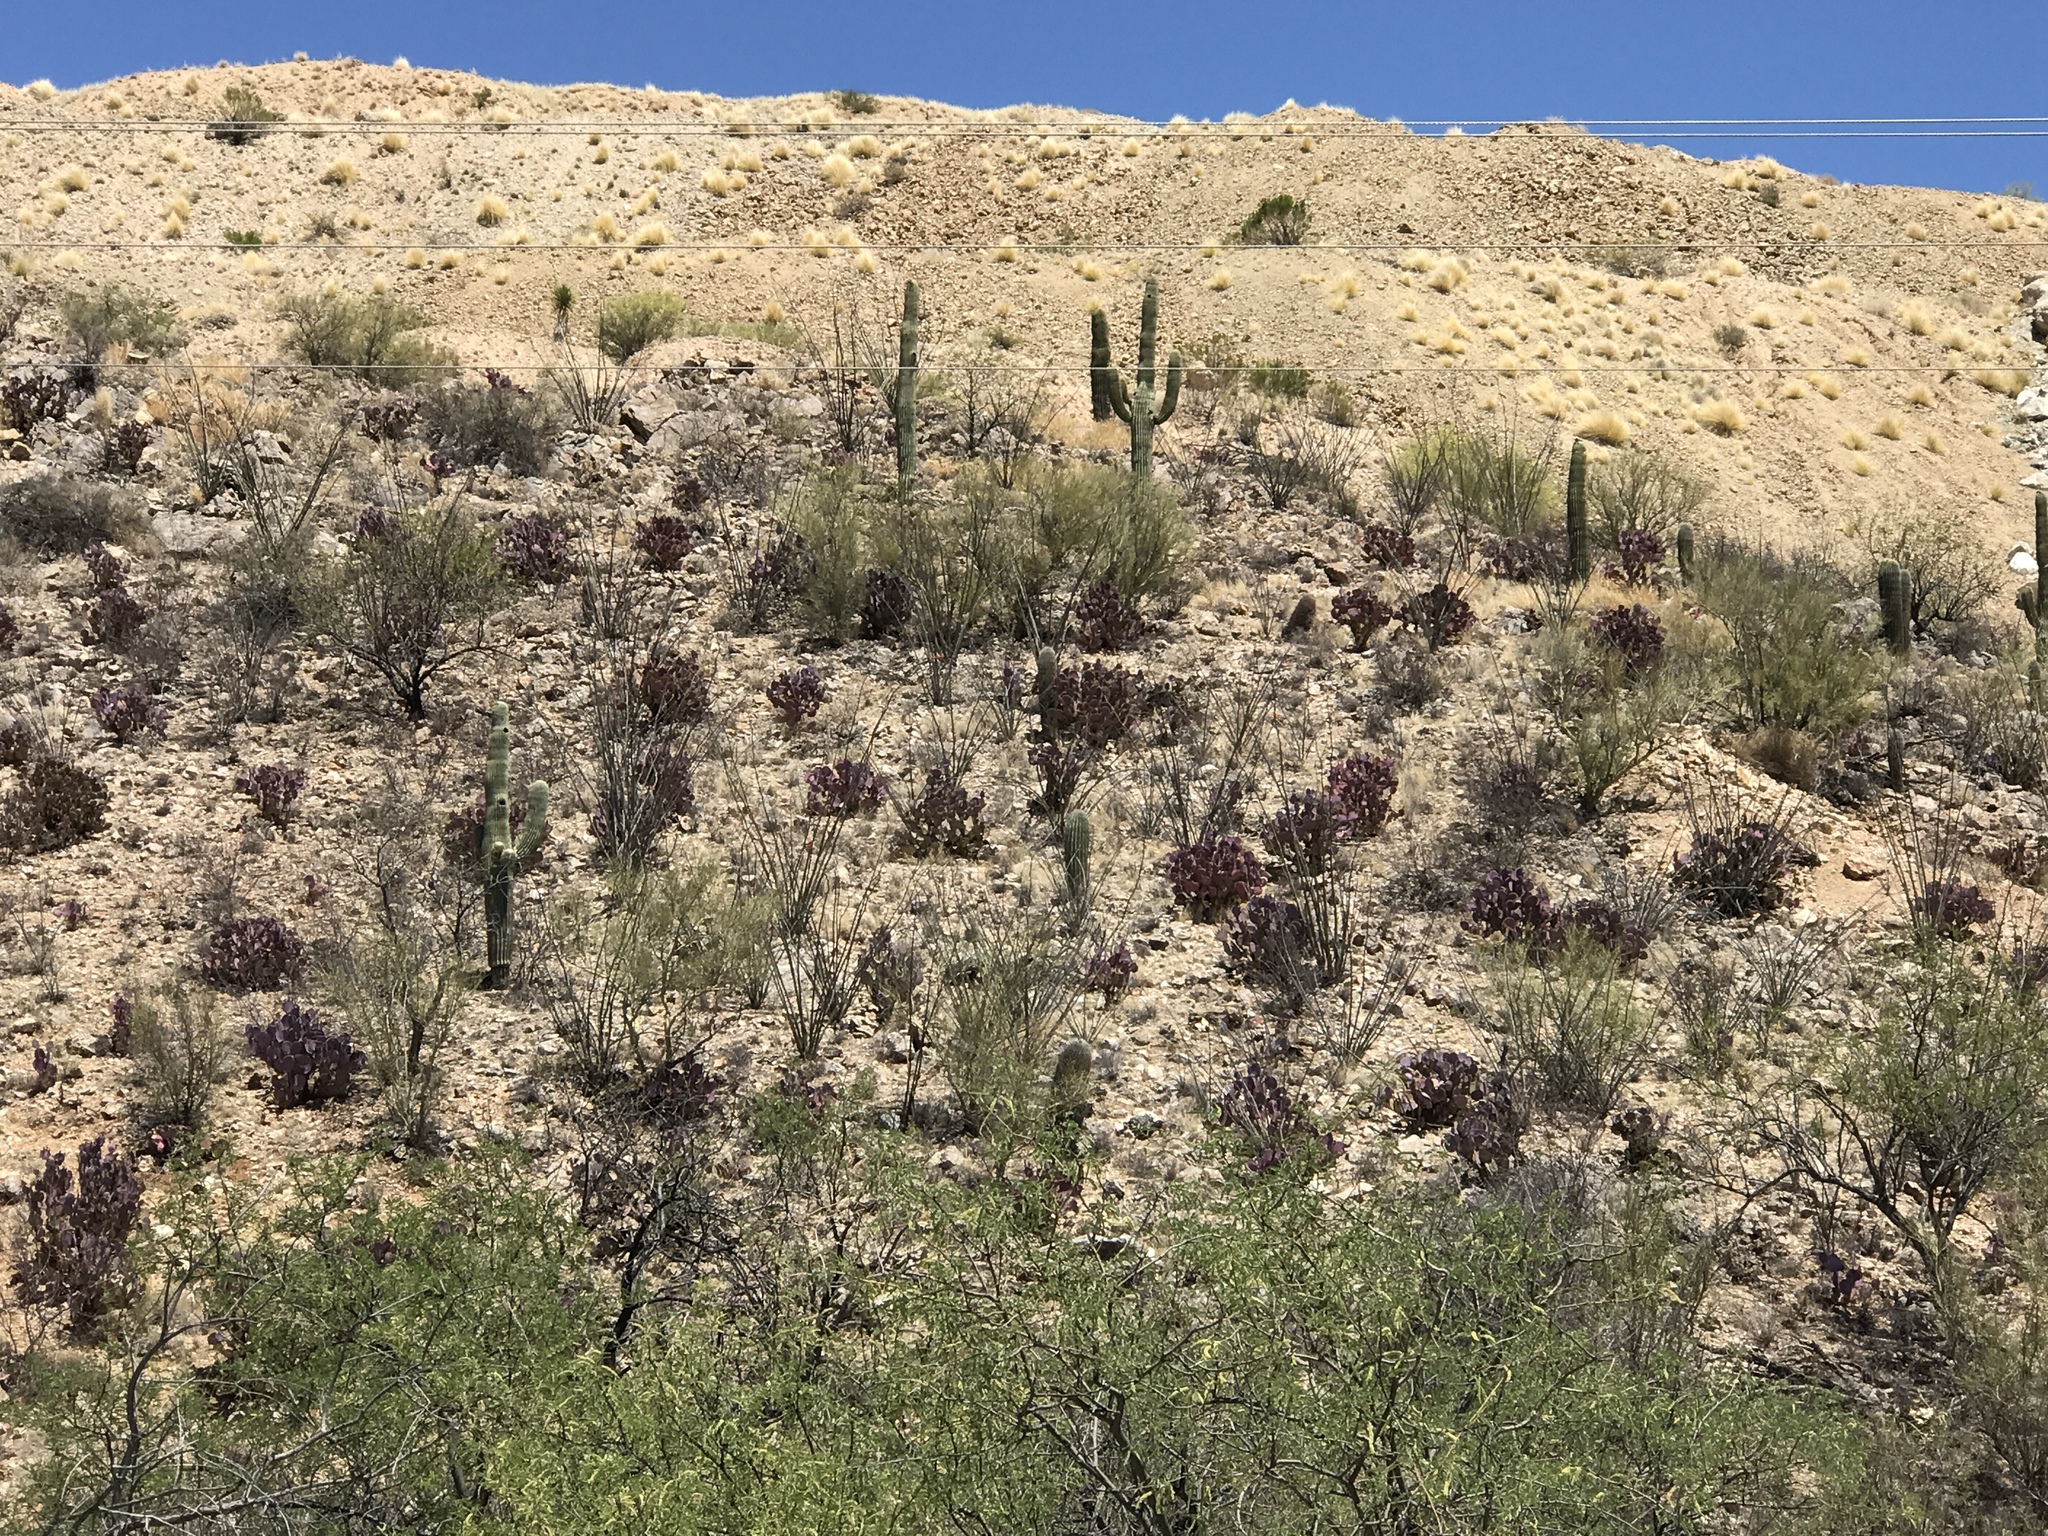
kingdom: Plantae
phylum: Tracheophyta
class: Magnoliopsida
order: Caryophyllales
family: Cactaceae
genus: Carnegiea
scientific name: Carnegiea gigantea
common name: Saguaro
